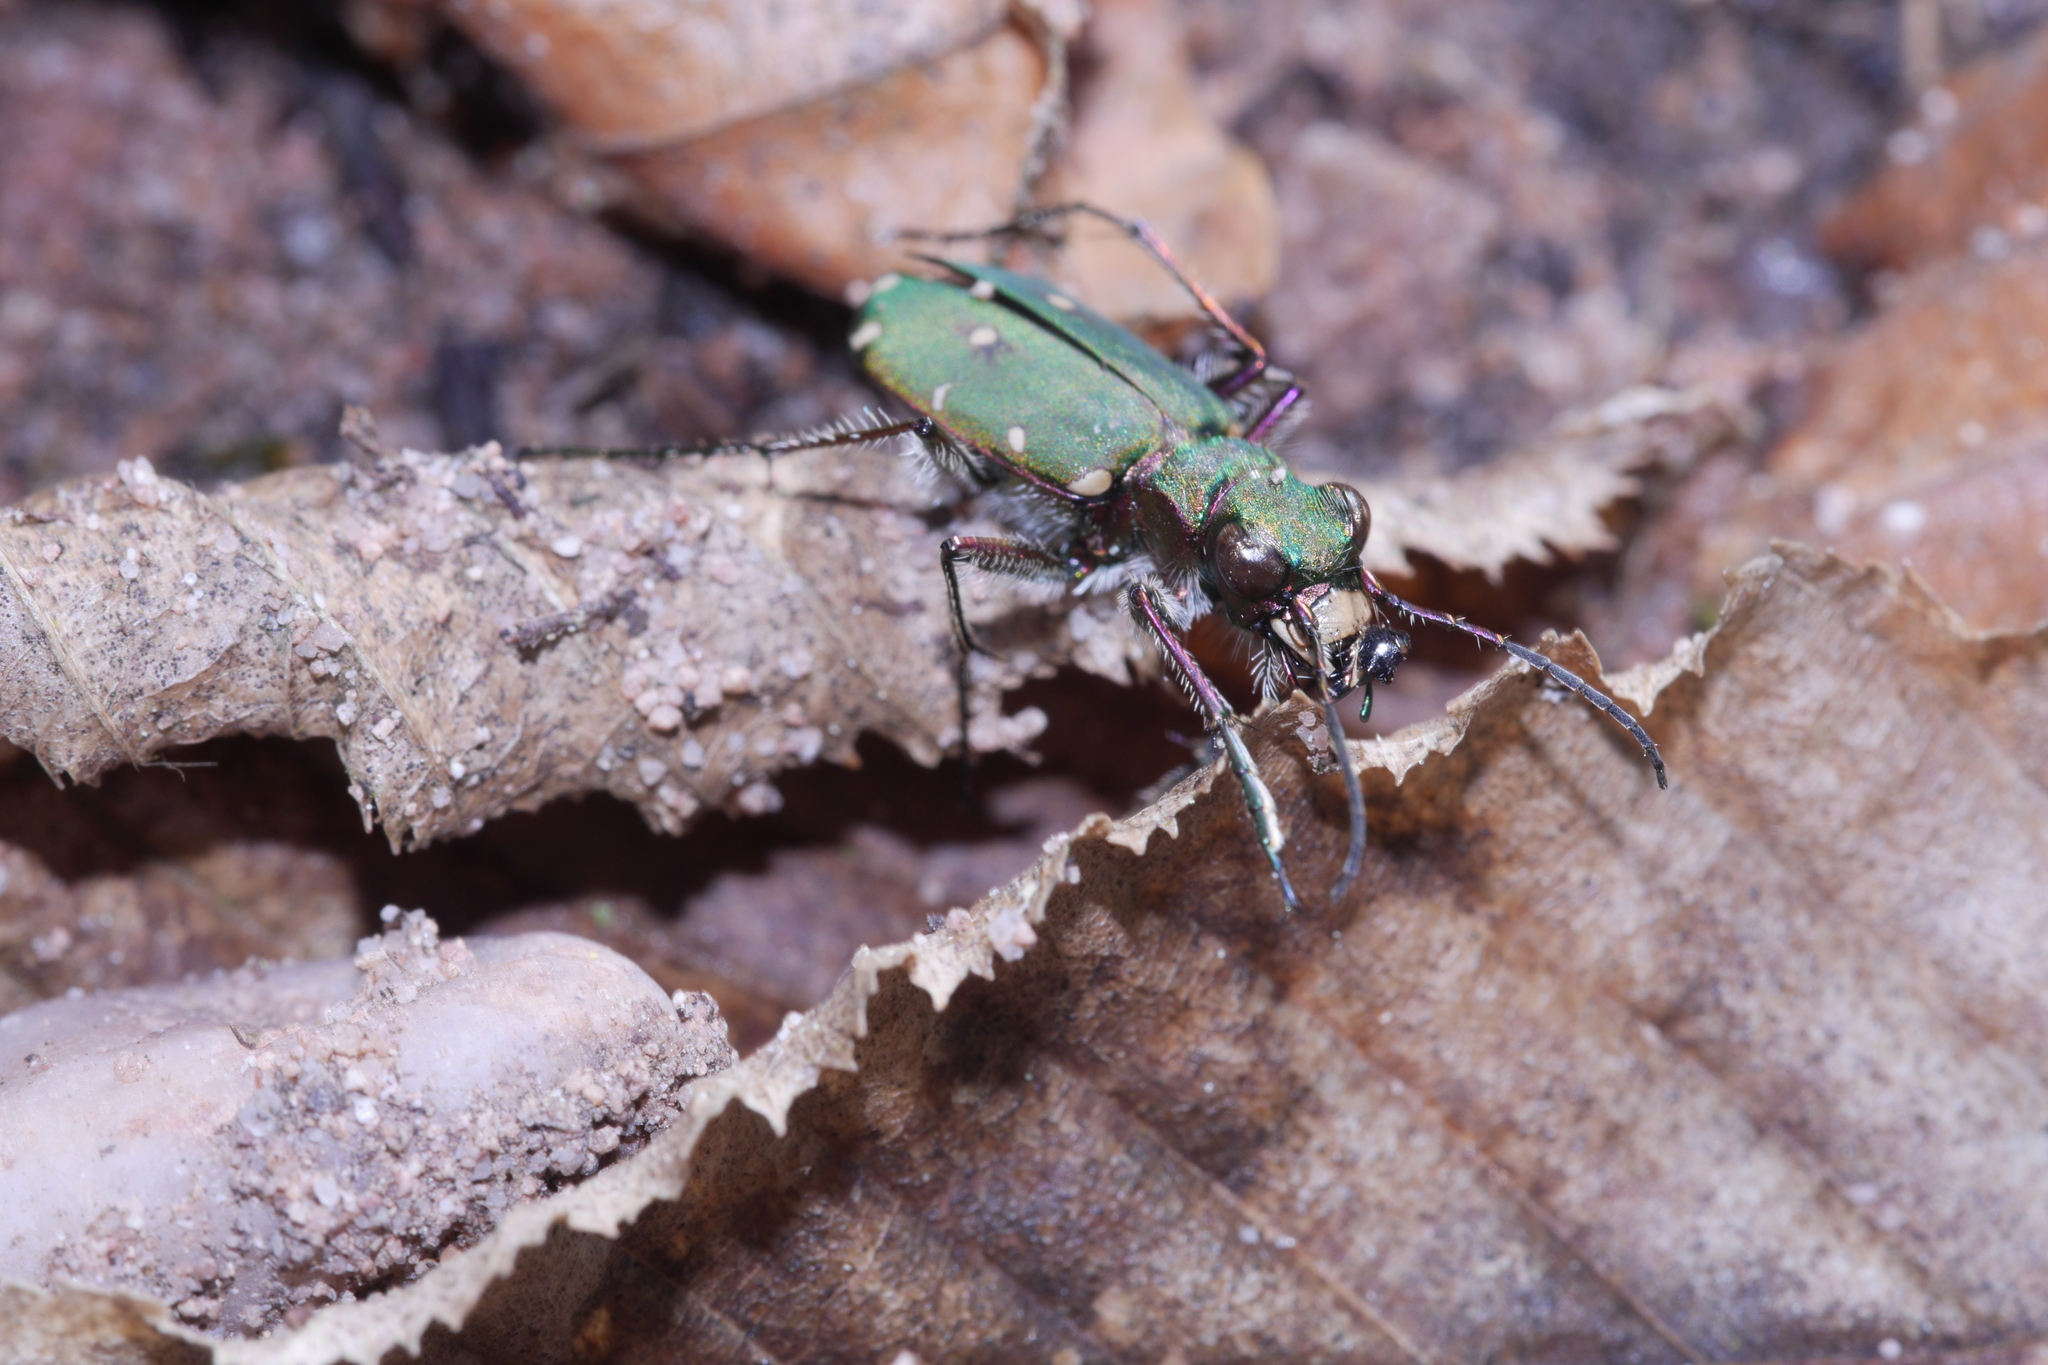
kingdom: Animalia
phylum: Arthropoda
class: Insecta
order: Coleoptera
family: Carabidae
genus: Cicindela
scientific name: Cicindela campestris
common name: Common tiger beetle
